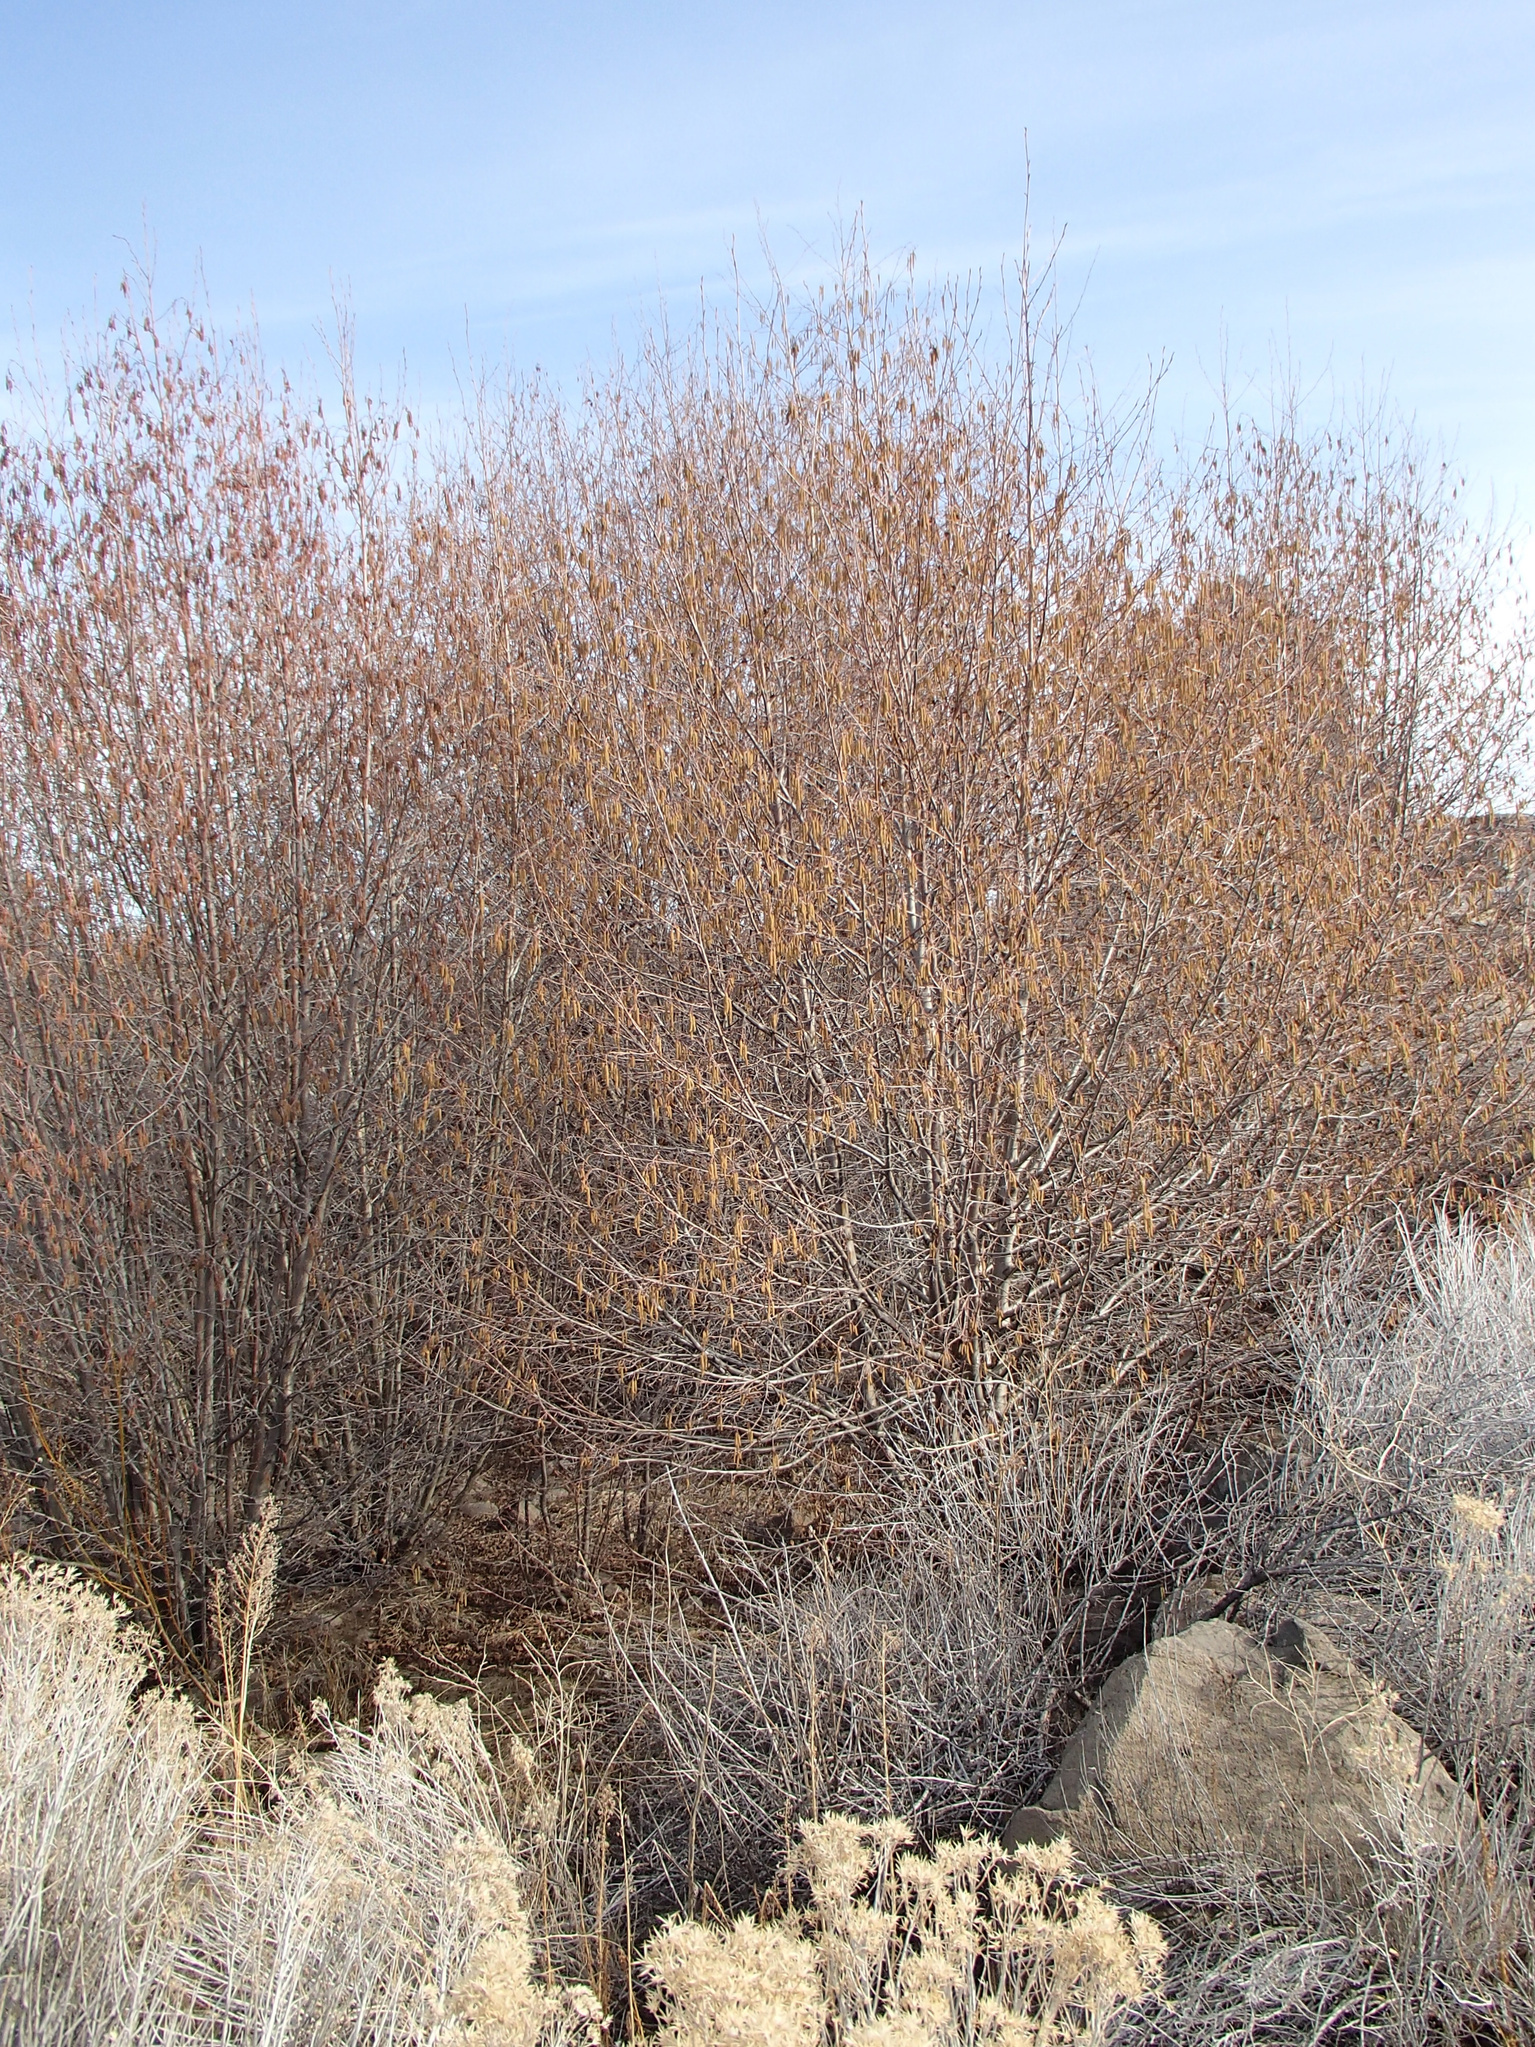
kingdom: Plantae
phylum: Tracheophyta
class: Magnoliopsida
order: Fagales
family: Betulaceae
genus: Alnus
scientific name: Alnus incana
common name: Grey alder
